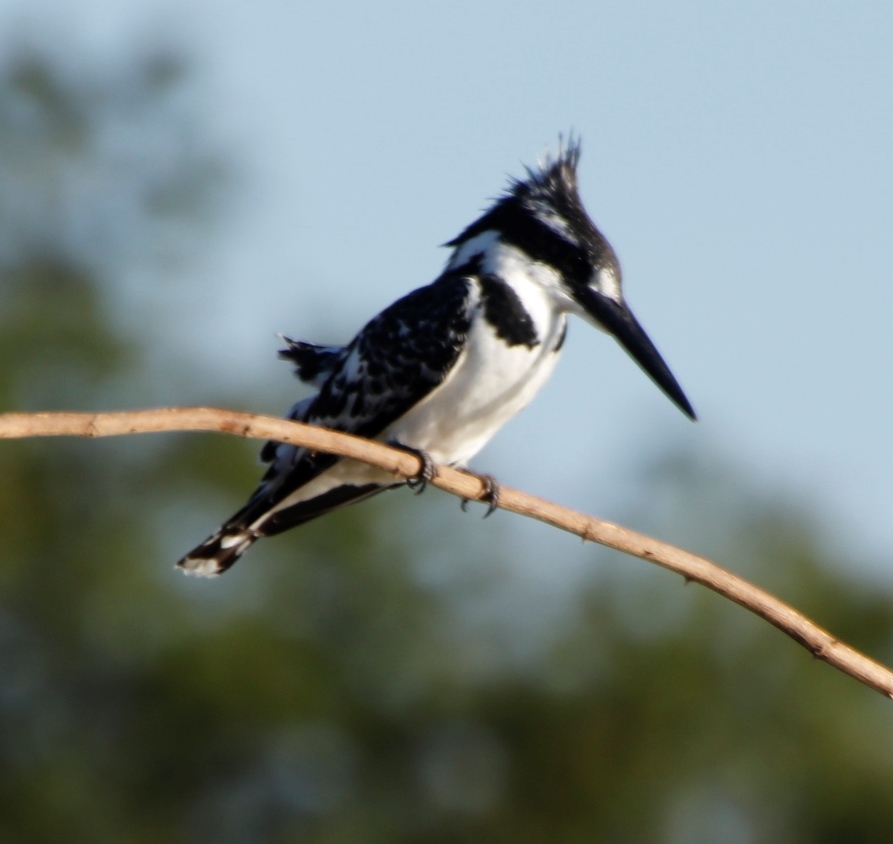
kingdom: Animalia
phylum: Chordata
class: Aves
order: Coraciiformes
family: Alcedinidae
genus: Ceryle
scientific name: Ceryle rudis
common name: Pied kingfisher
